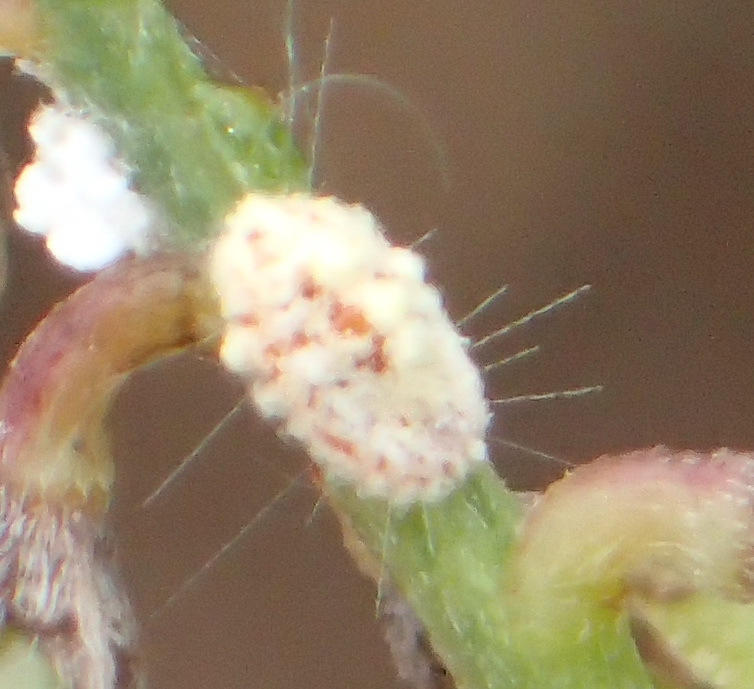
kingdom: Animalia
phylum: Arthropoda
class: Insecta
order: Hemiptera
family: Margarodidae
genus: Icerya
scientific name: Icerya purchasi
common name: Cottony cushion scale
